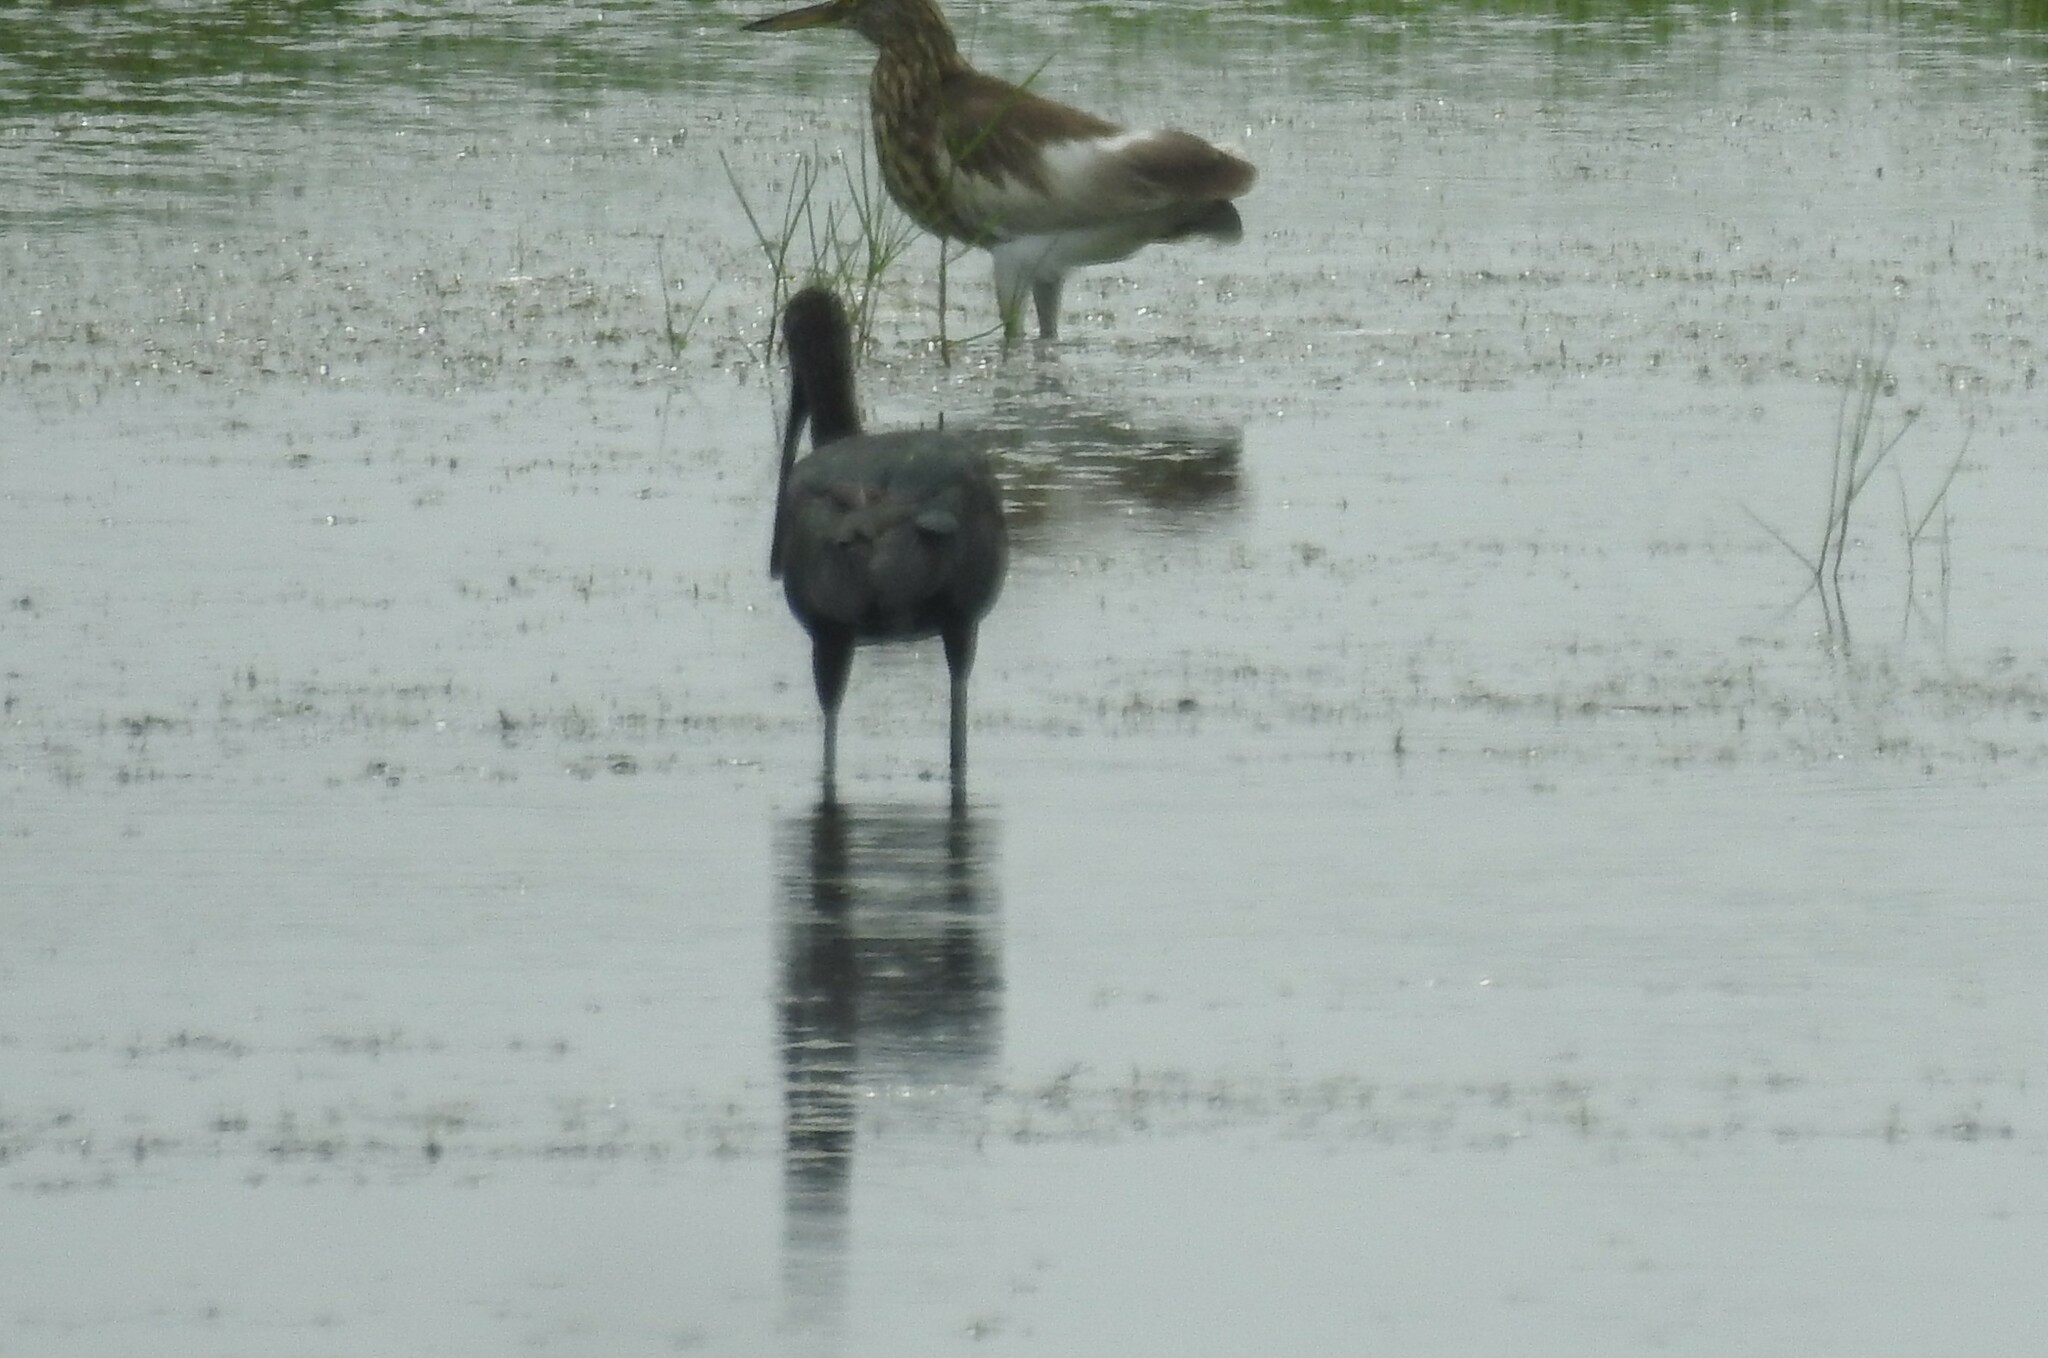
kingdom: Animalia
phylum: Chordata
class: Aves
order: Pelecaniformes
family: Threskiornithidae
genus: Plegadis
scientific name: Plegadis falcinellus
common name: Glossy ibis
